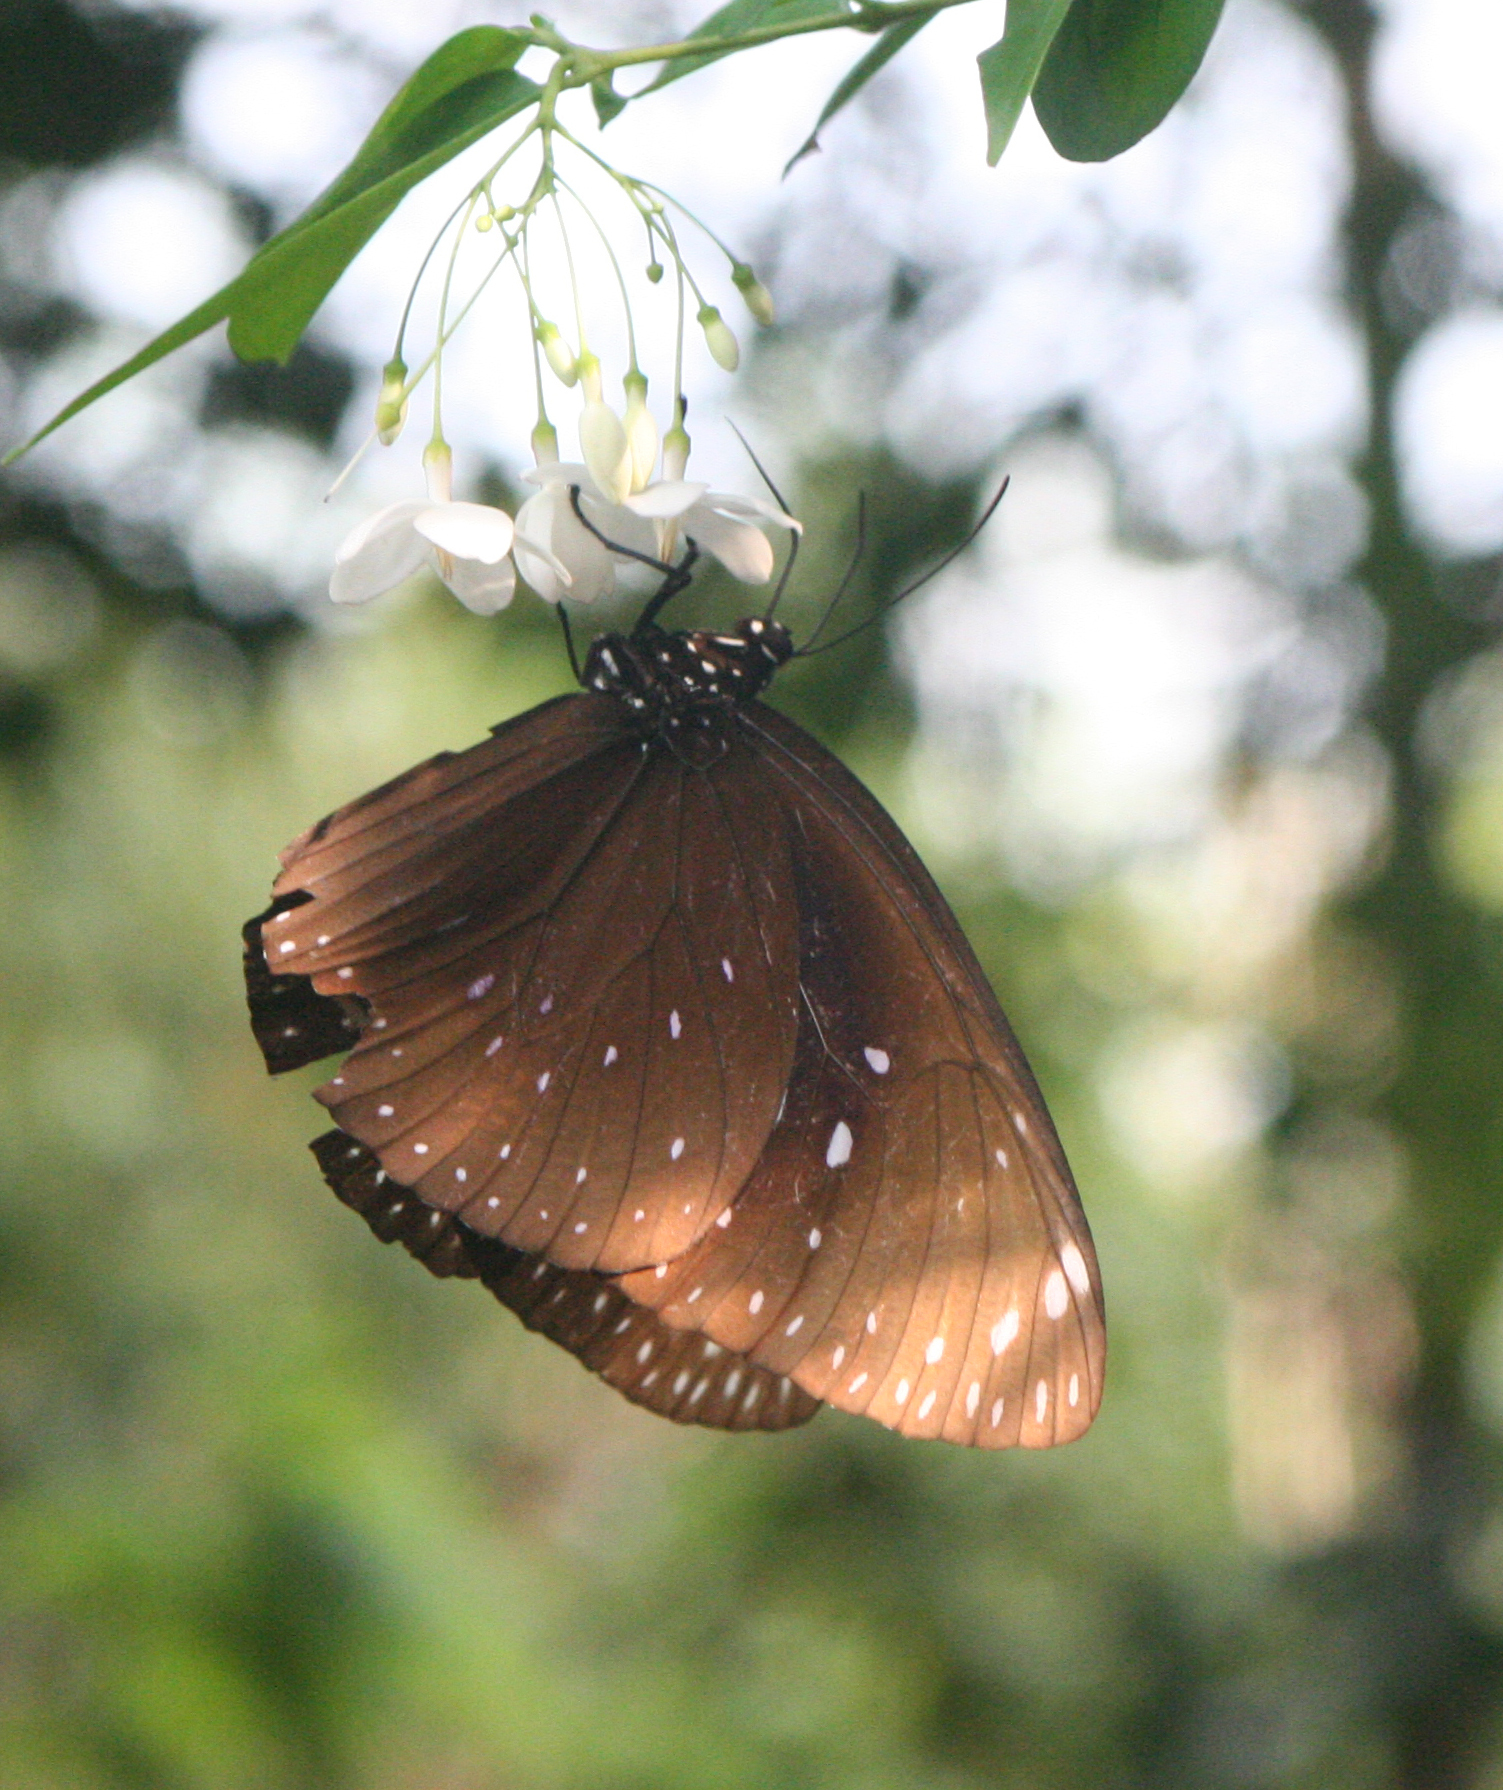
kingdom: Animalia
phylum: Arthropoda
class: Insecta
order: Lepidoptera
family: Nymphalidae
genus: Euploea
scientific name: Euploea phaenareta
